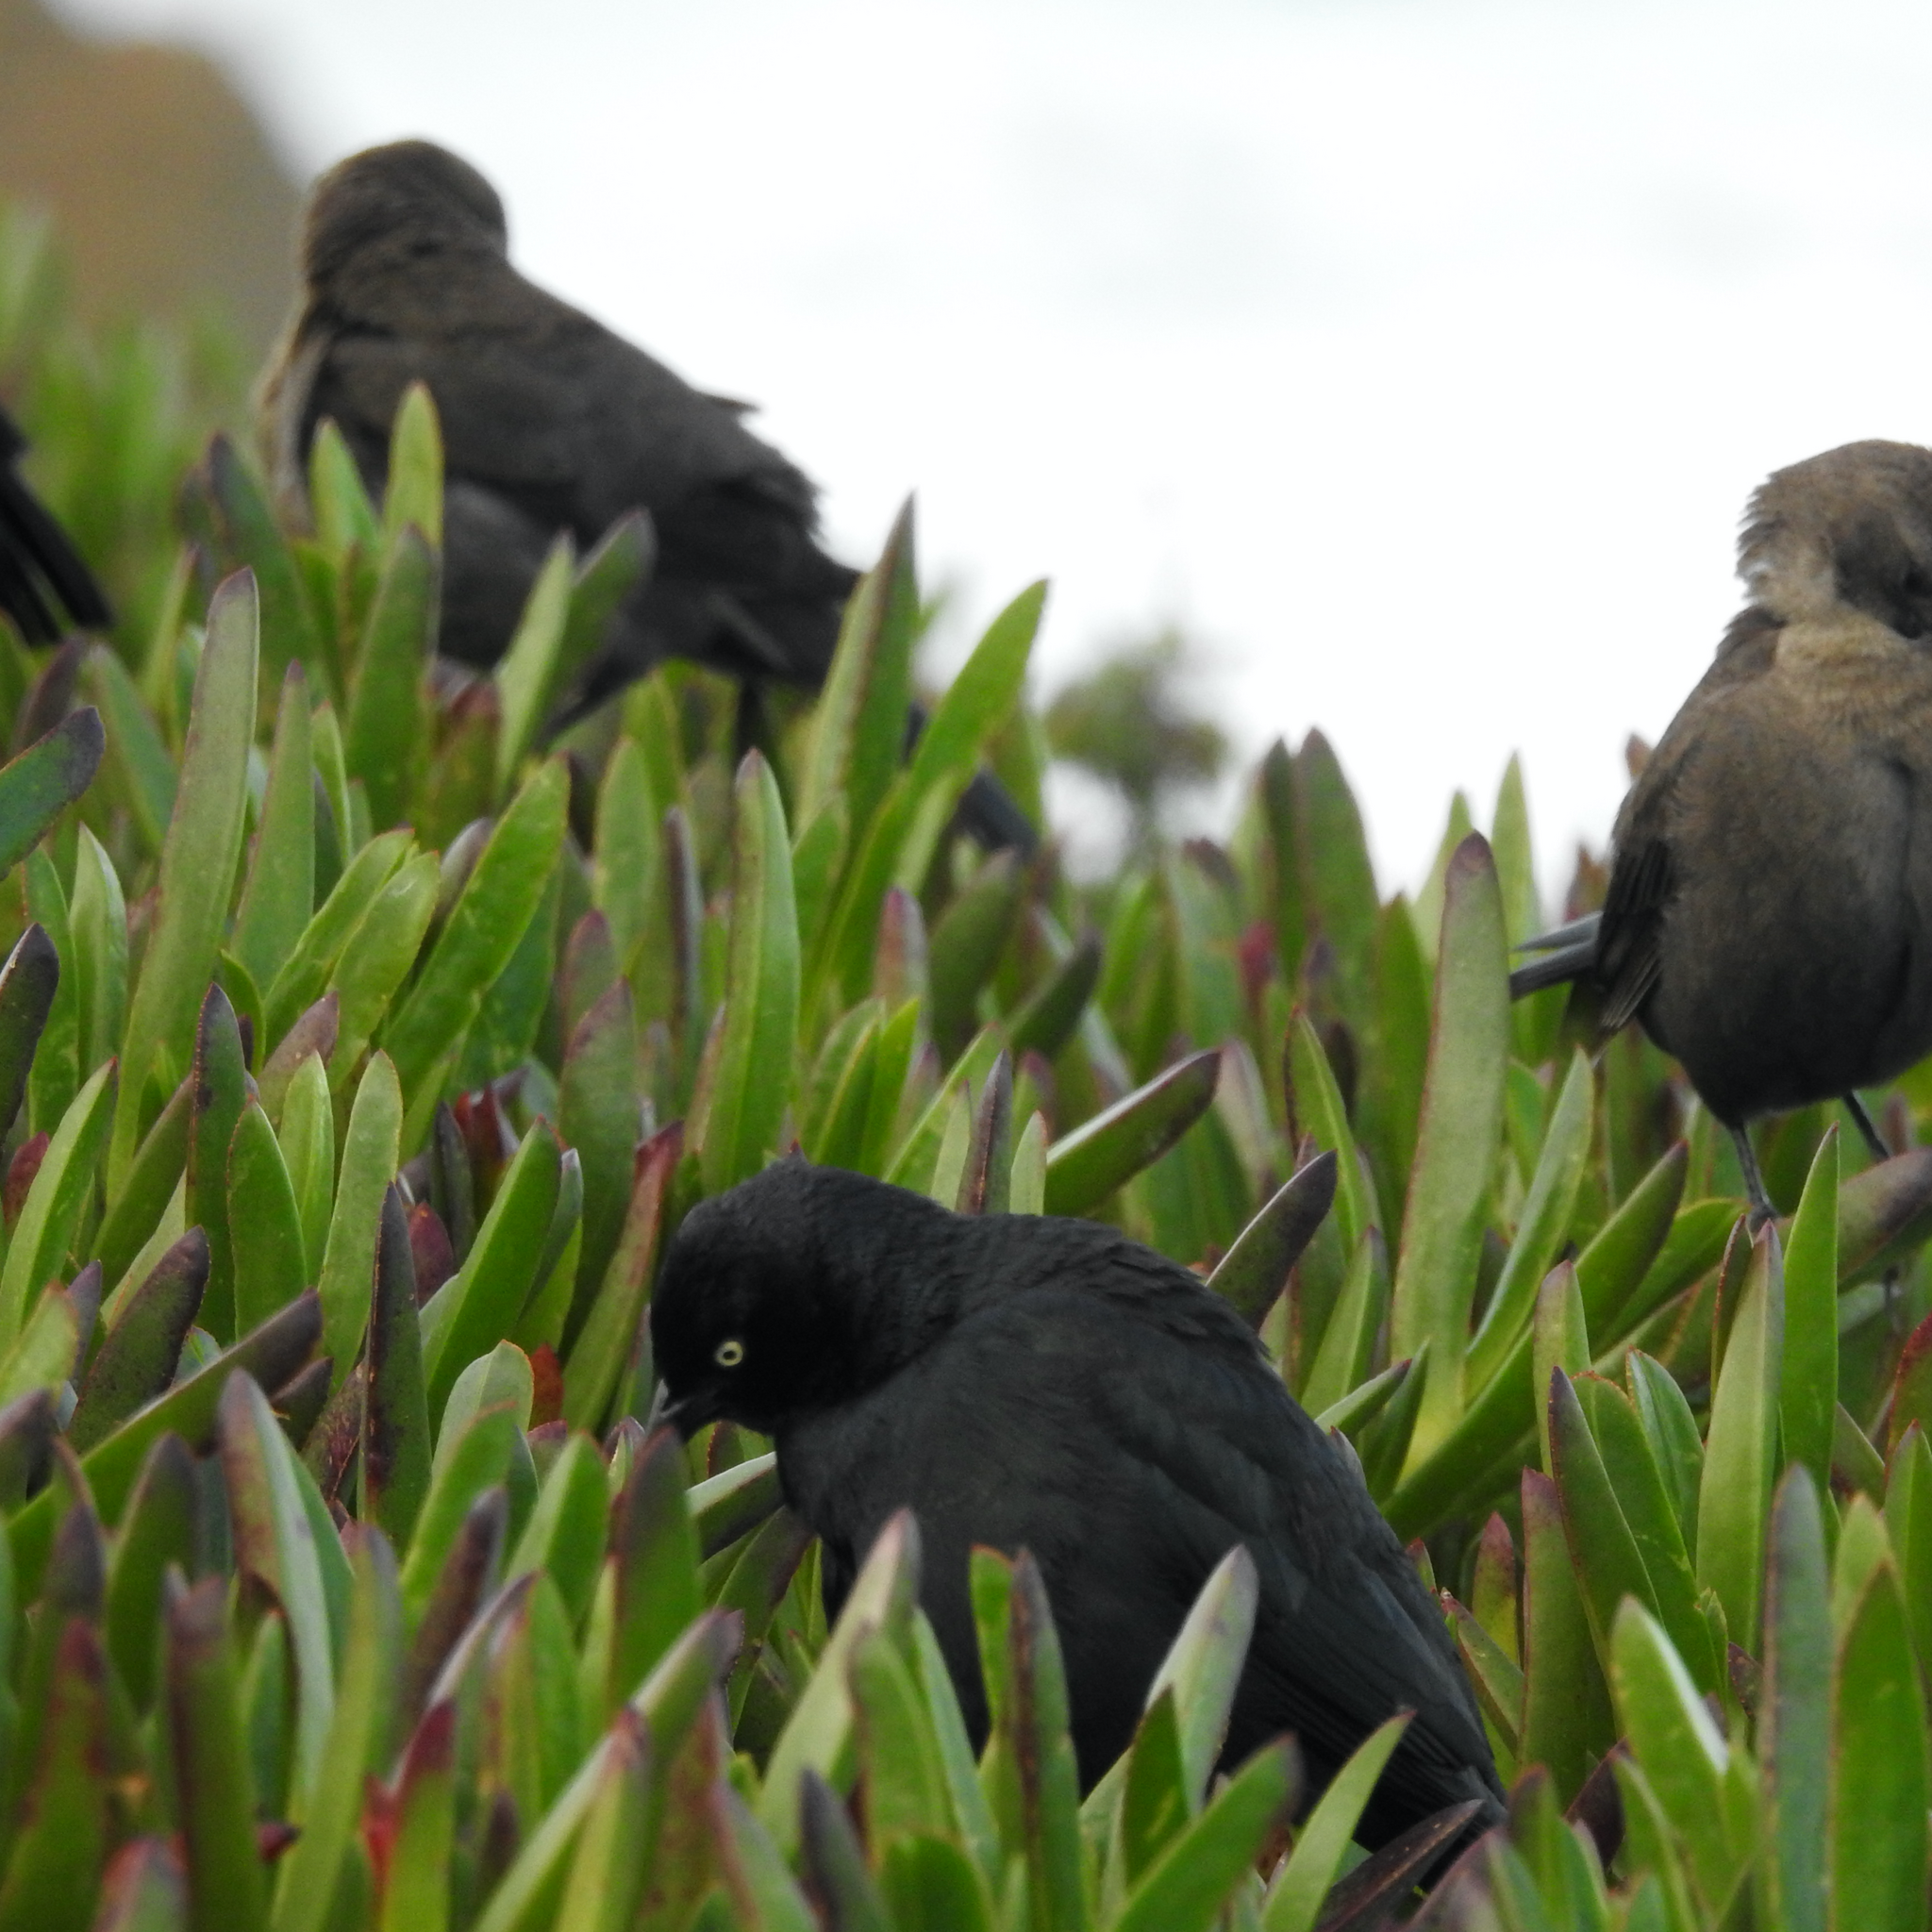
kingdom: Animalia
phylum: Chordata
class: Aves
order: Passeriformes
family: Icteridae
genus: Euphagus
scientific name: Euphagus cyanocephalus
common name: Brewer's blackbird
